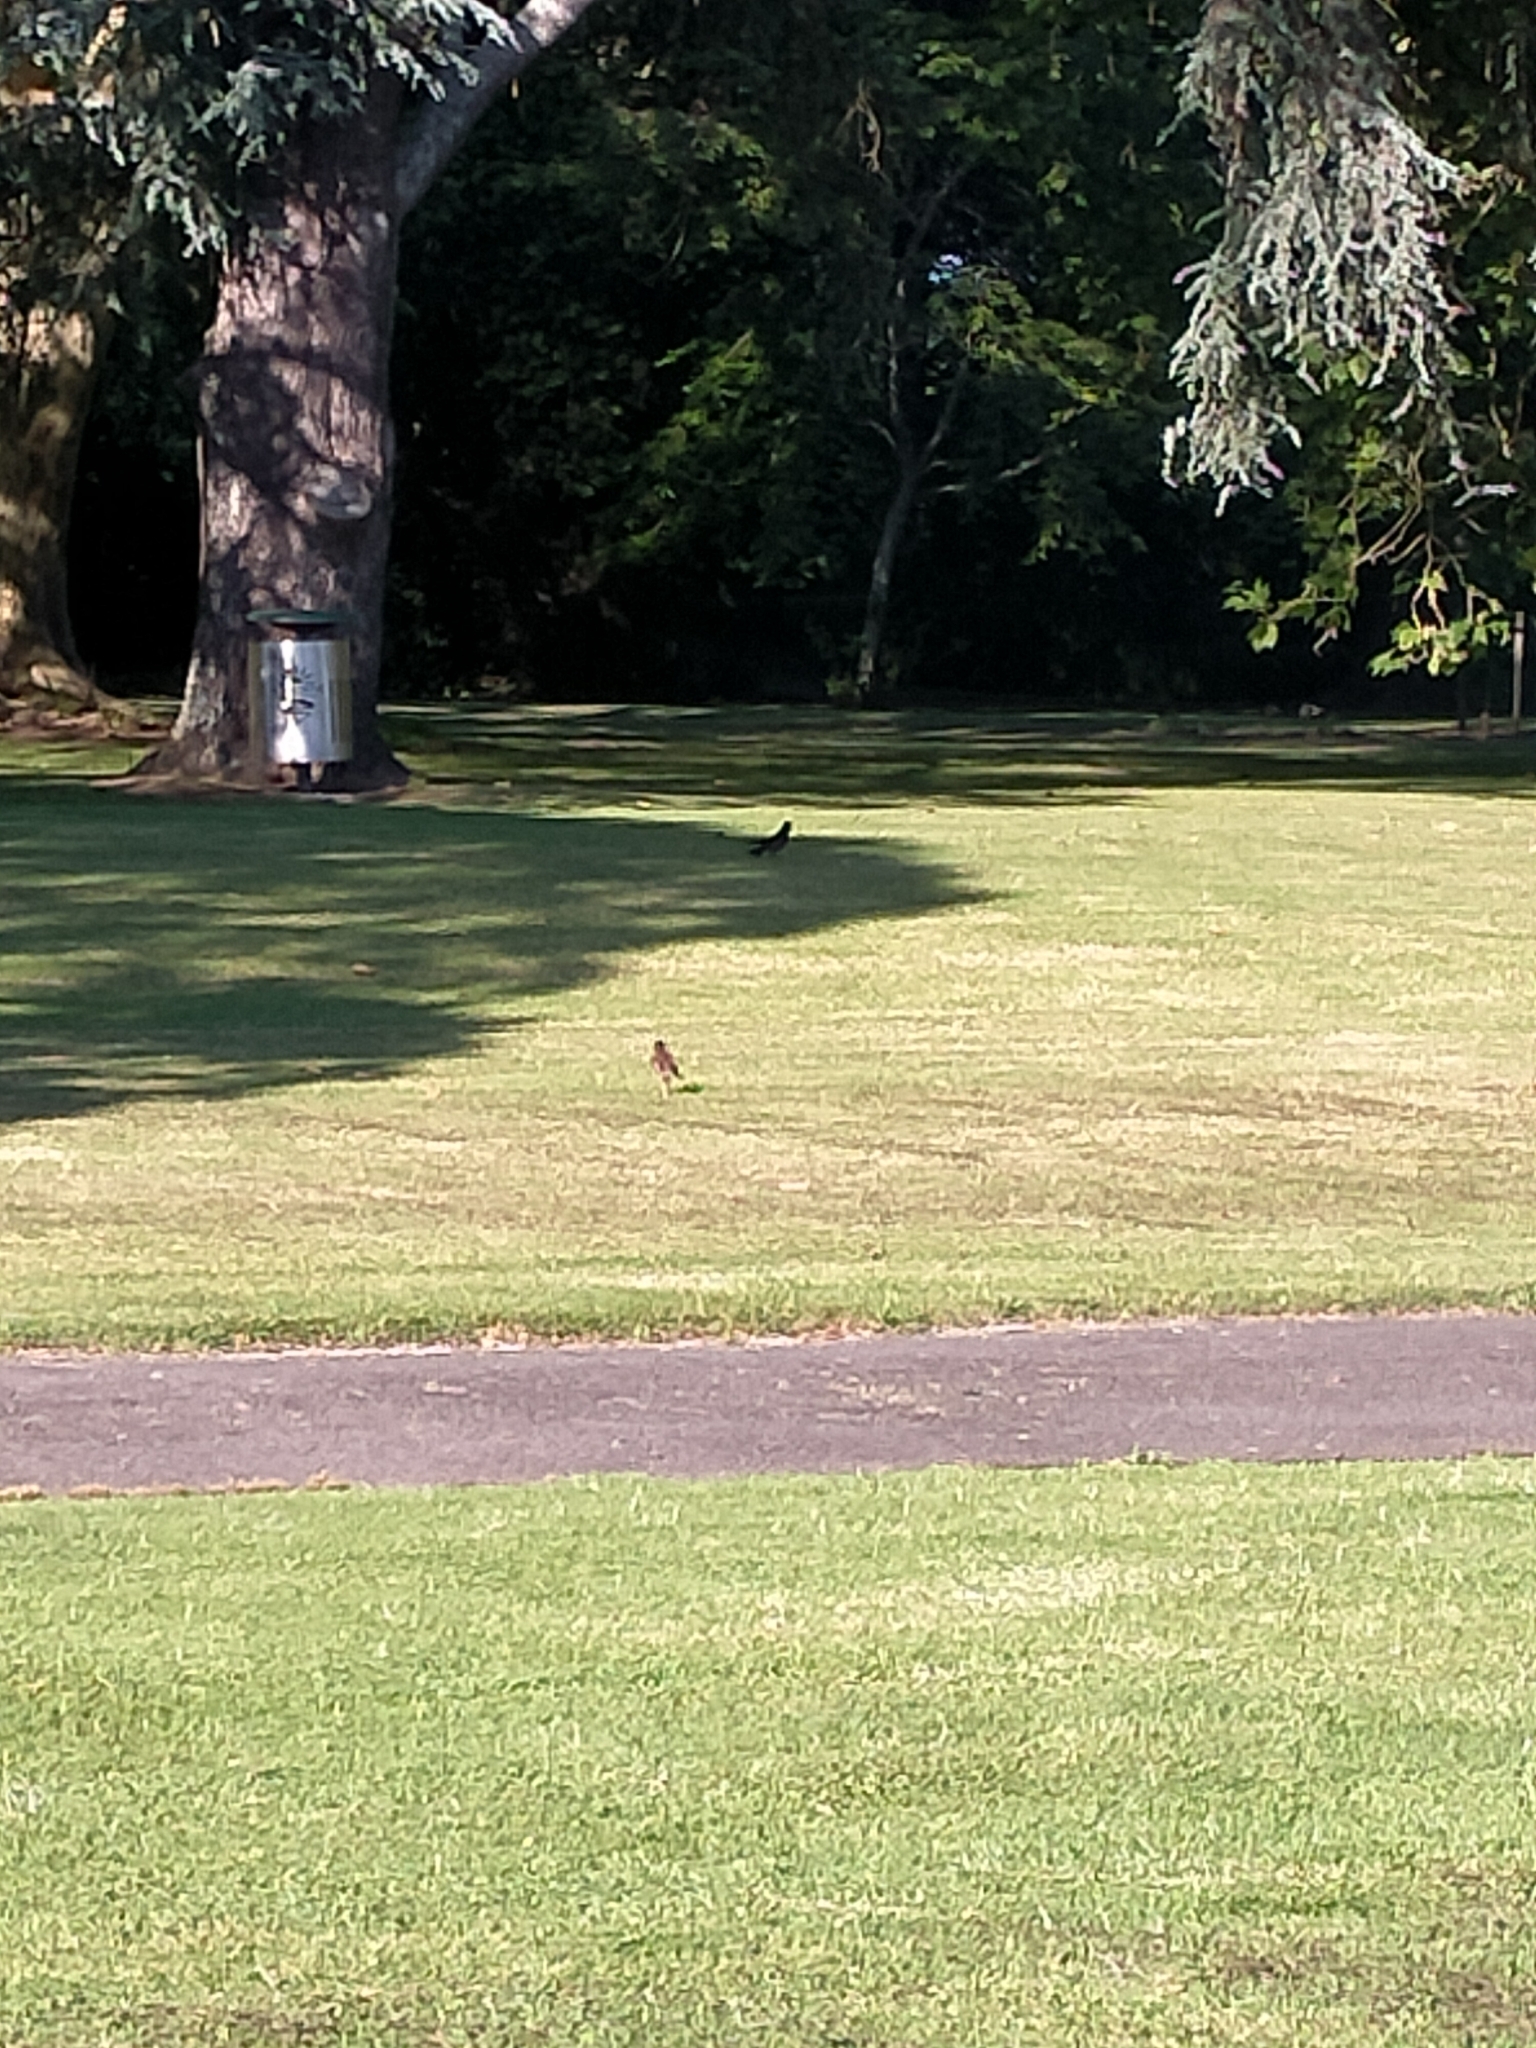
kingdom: Animalia
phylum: Chordata
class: Aves
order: Passeriformes
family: Sturnidae
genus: Acridotheres
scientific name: Acridotheres tristis
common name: Common myna
